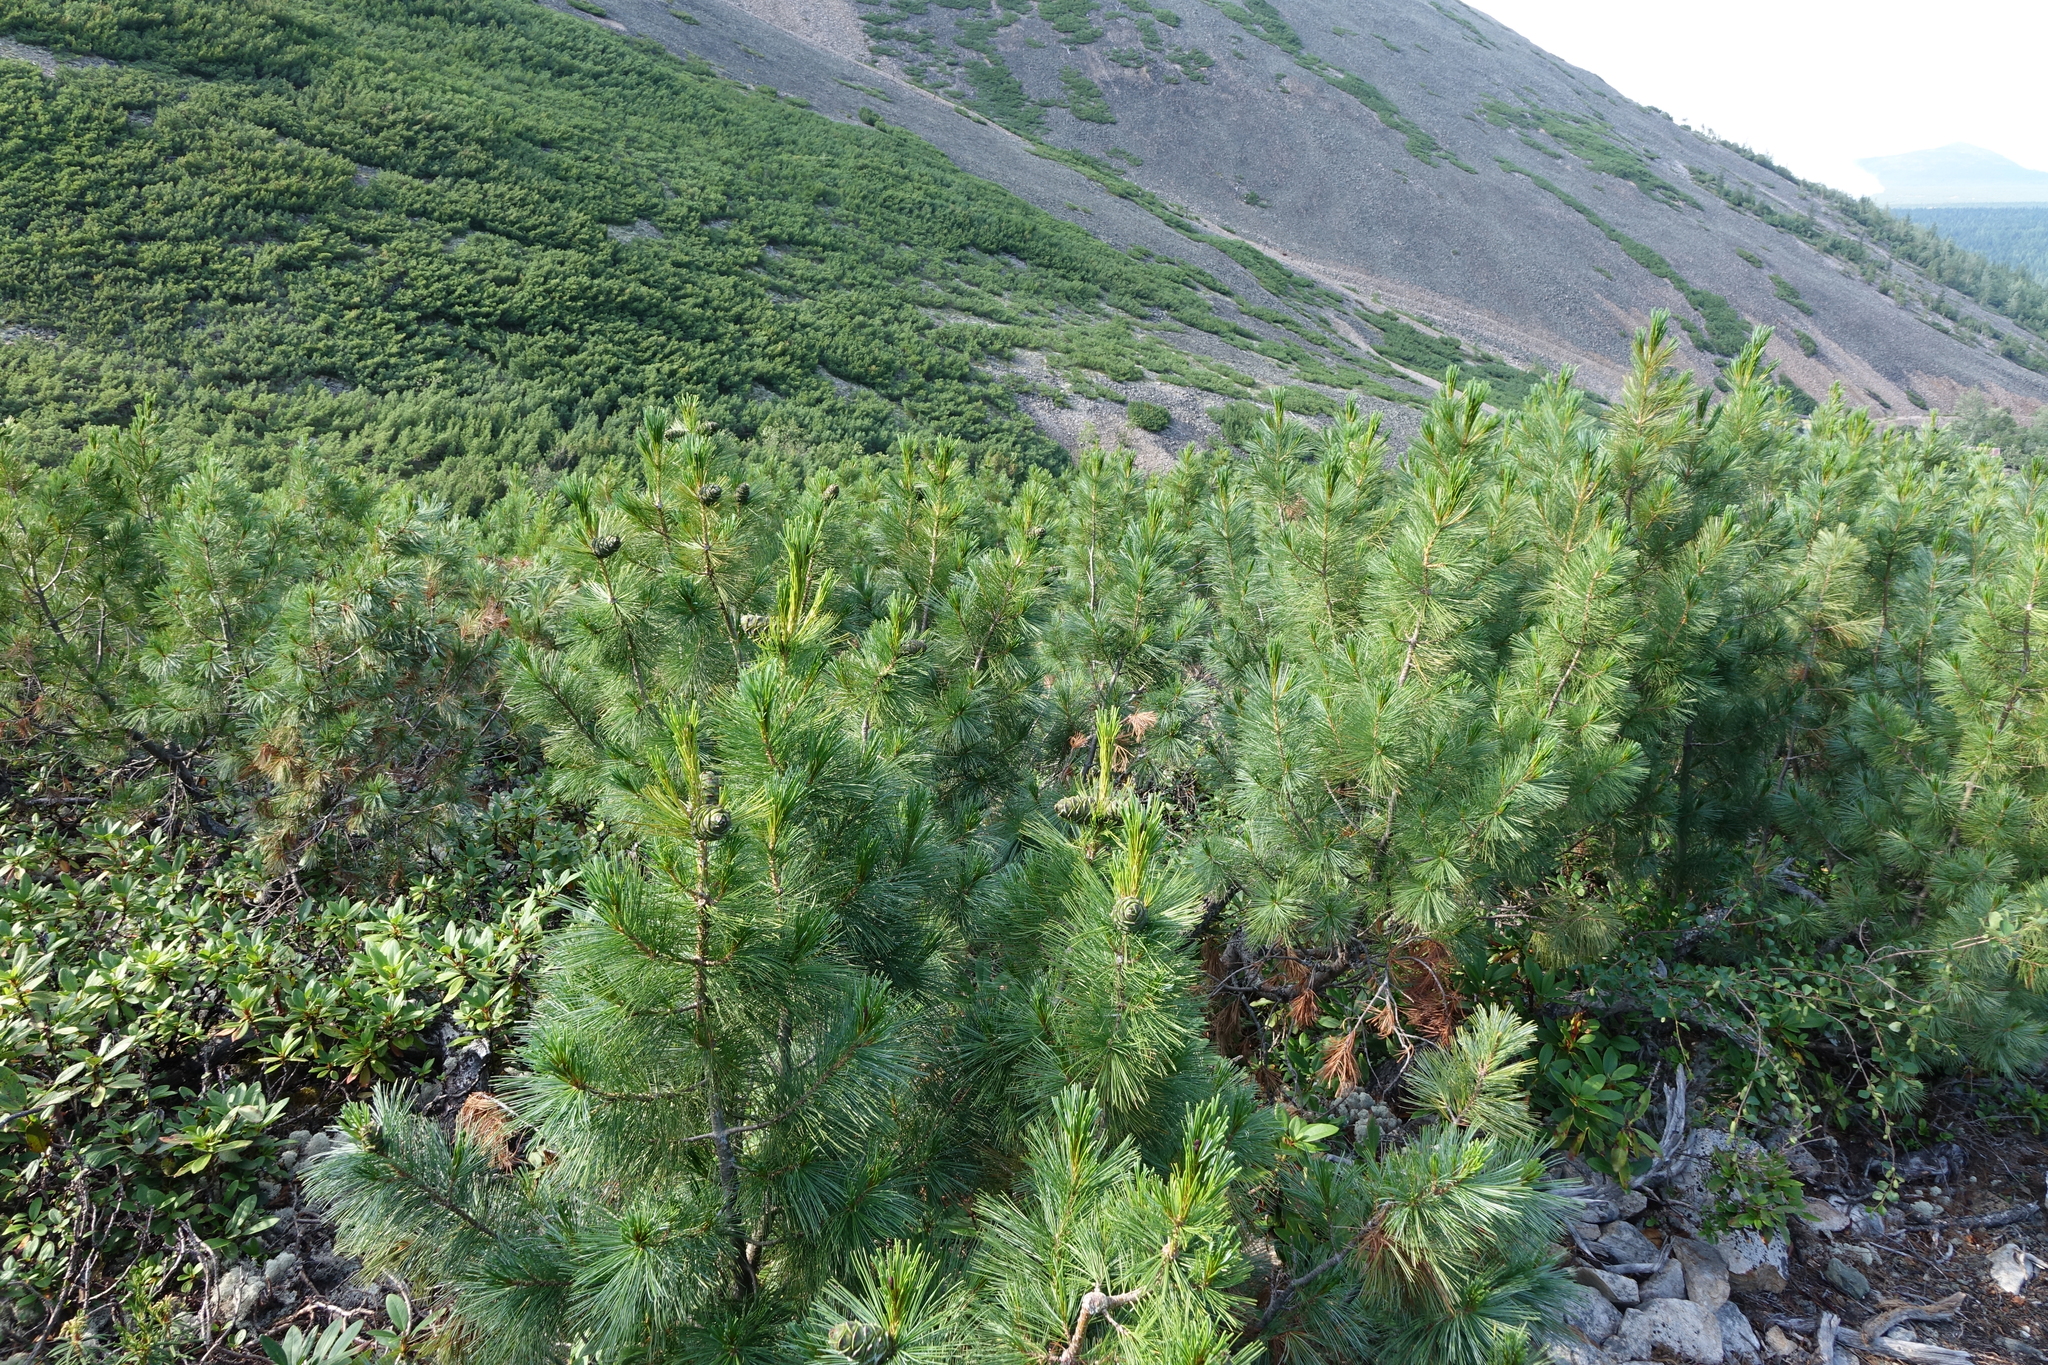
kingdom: Plantae
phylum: Tracheophyta
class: Pinopsida
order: Pinales
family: Pinaceae
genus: Pinus
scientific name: Pinus pumila
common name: Dwarf siberian pine
